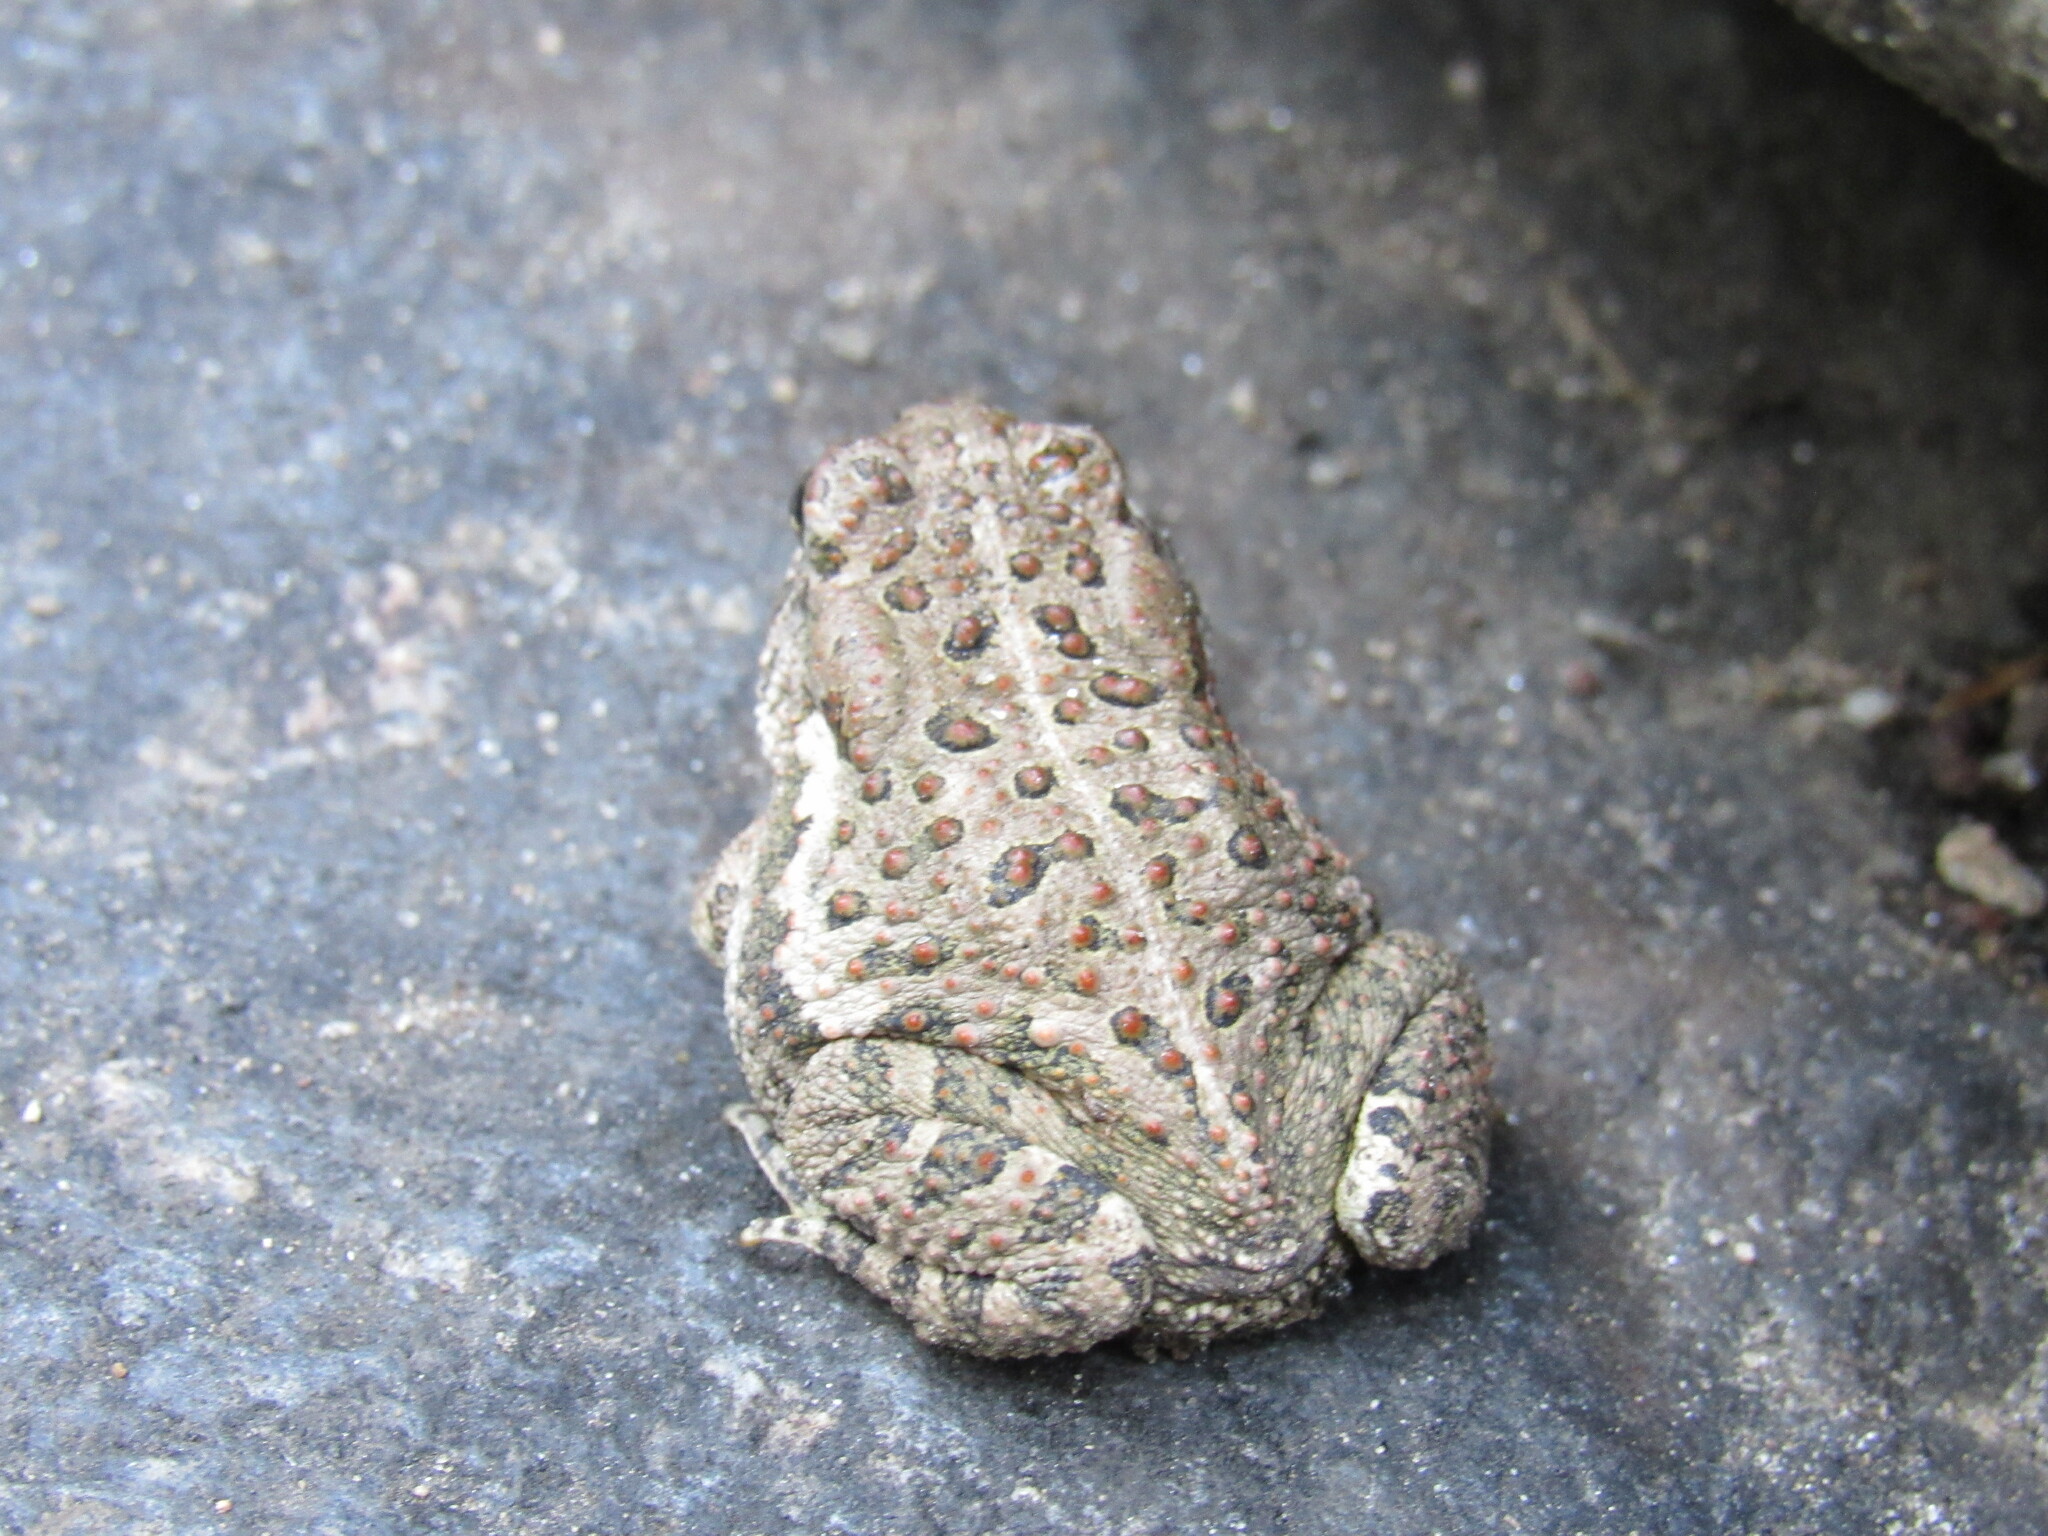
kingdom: Animalia
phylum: Chordata
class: Amphibia
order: Anura
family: Bufonidae
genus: Anaxyrus
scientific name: Anaxyrus woodhousii
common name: Woodhouse's toad
